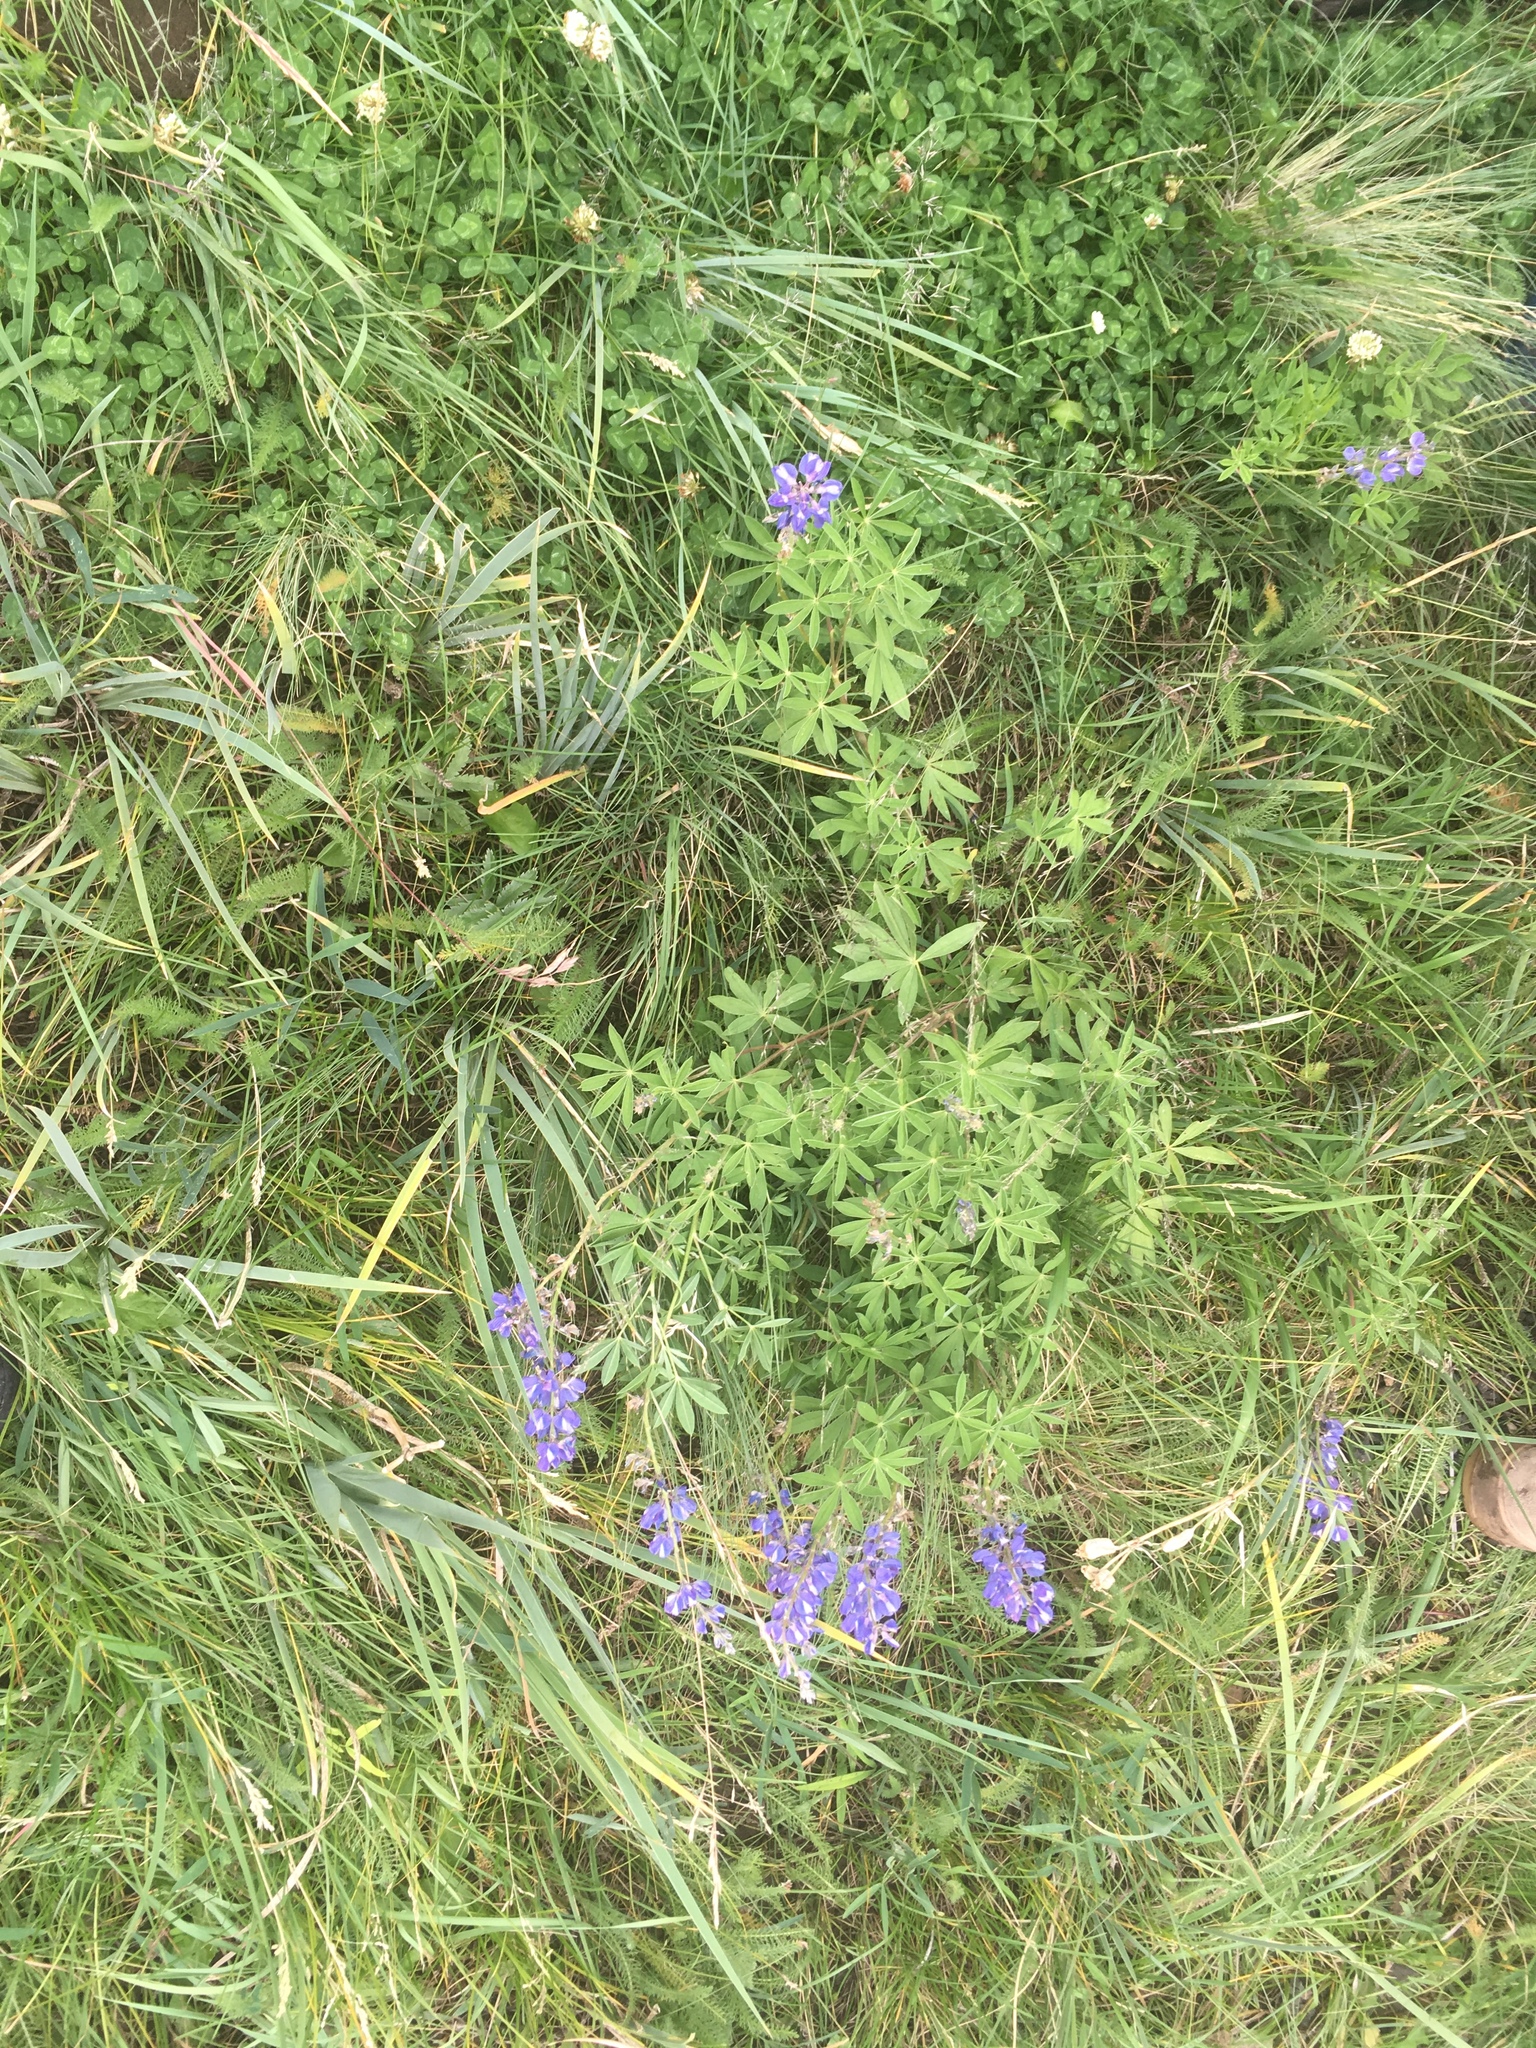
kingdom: Plantae
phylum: Tracheophyta
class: Magnoliopsida
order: Fabales
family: Fabaceae
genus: Lupinus
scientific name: Lupinus argenteus
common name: Silvery lupine
